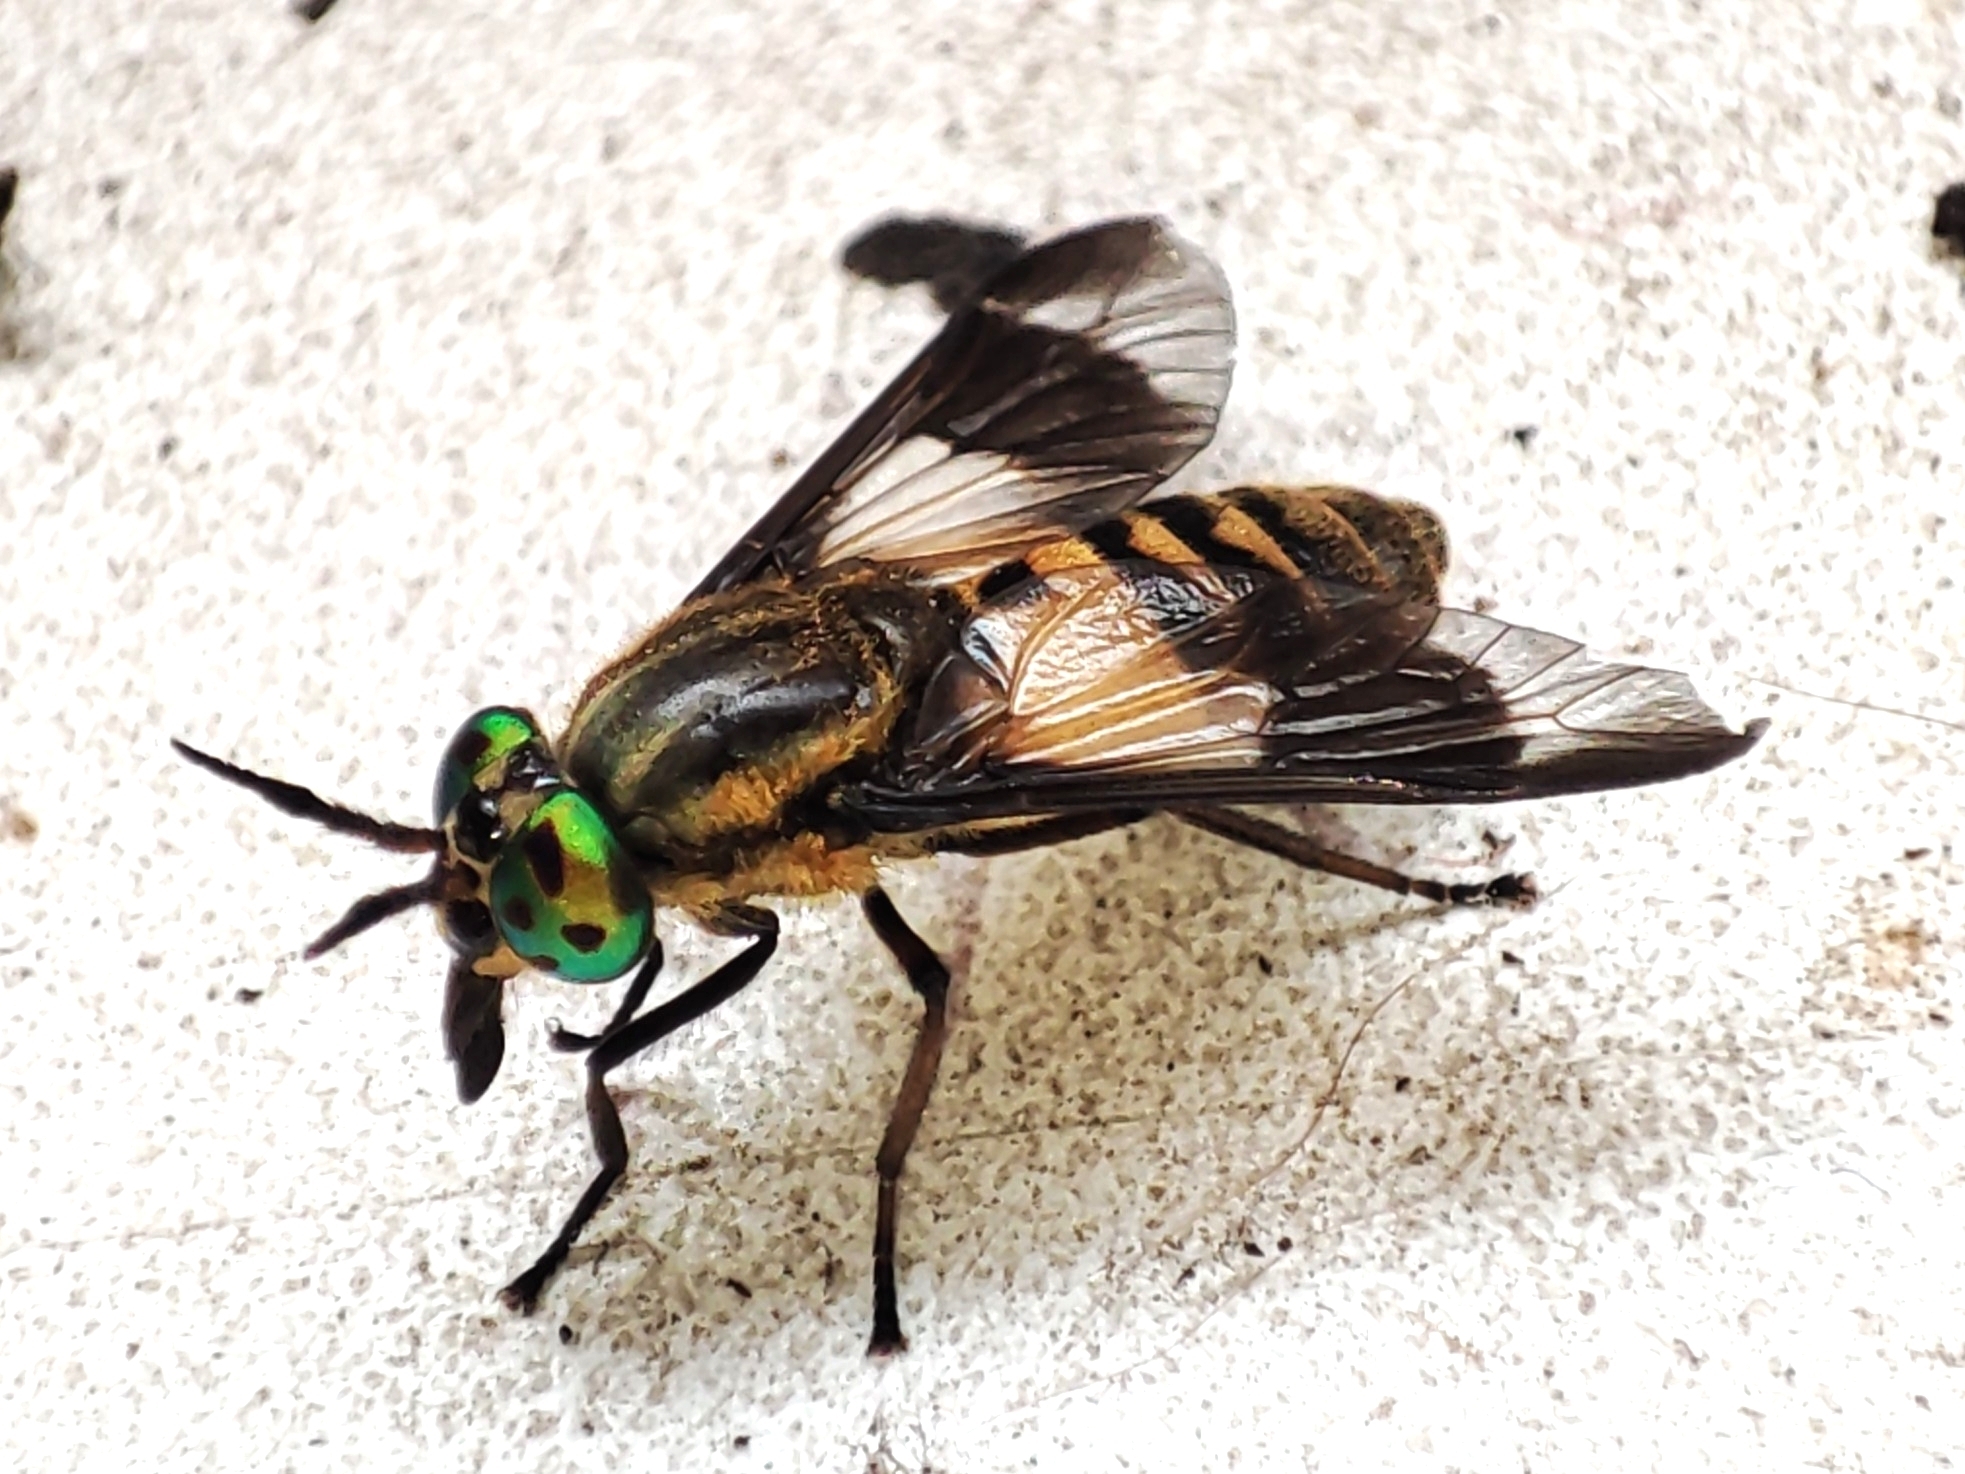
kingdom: Animalia
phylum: Arthropoda
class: Insecta
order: Diptera
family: Tabanidae
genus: Chrysops
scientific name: Chrysops viduatus
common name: Square-spot deerfly
